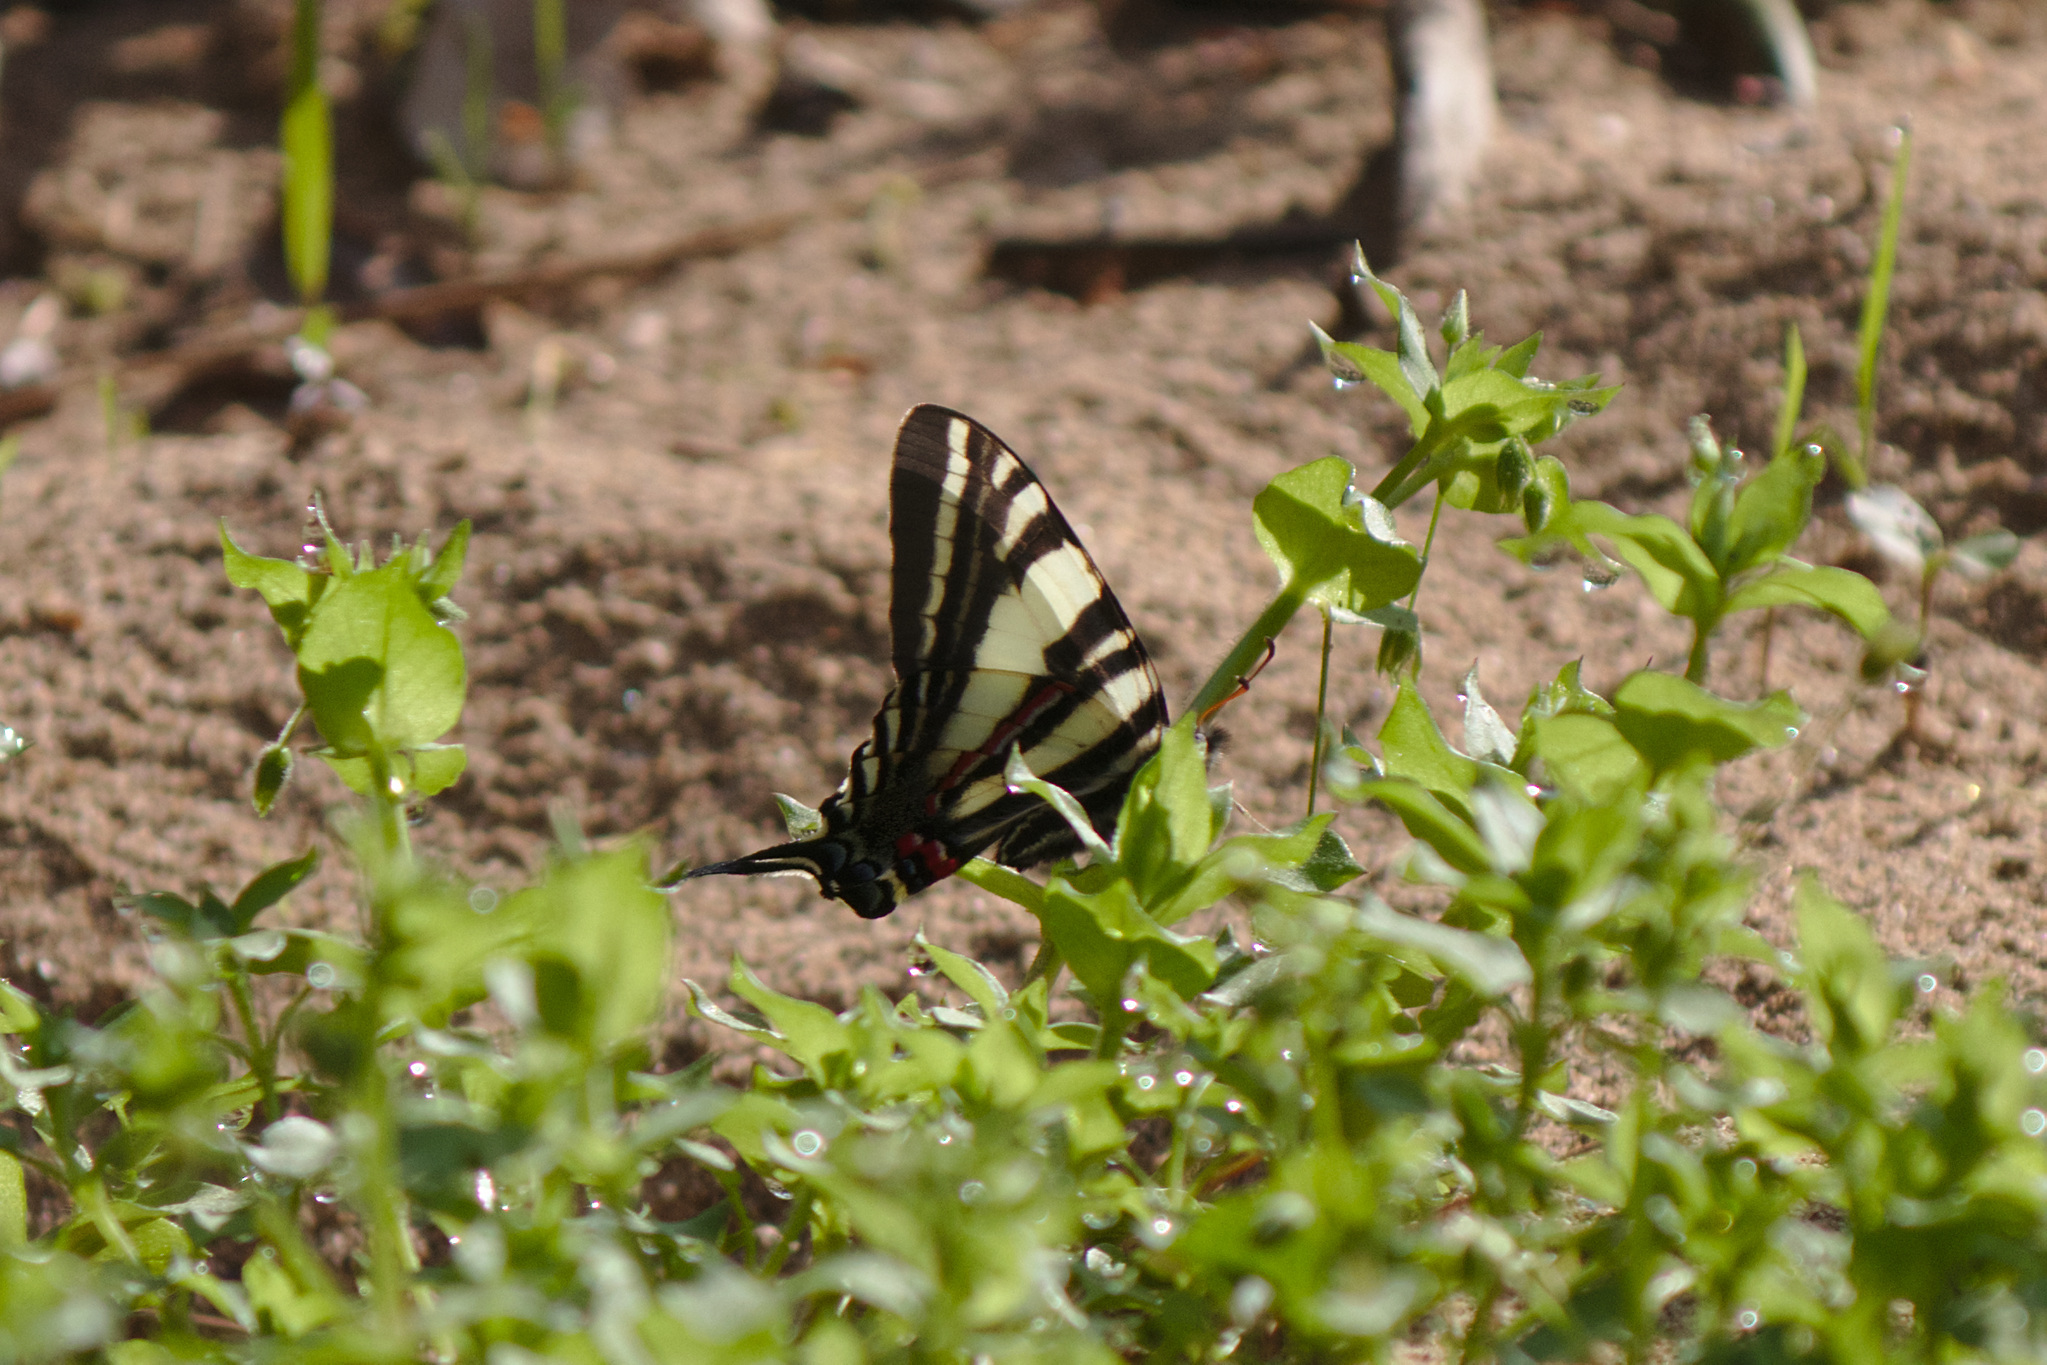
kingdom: Animalia
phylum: Arthropoda
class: Insecta
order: Lepidoptera
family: Papilionidae
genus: Protographium
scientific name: Protographium marcellus
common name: Zebra swallowtail
